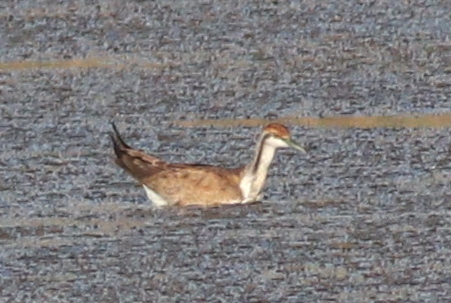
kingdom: Animalia
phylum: Chordata
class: Aves
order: Charadriiformes
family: Jacanidae
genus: Hydrophasianus
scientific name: Hydrophasianus chirurgus
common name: Pheasant-tailed jacana
